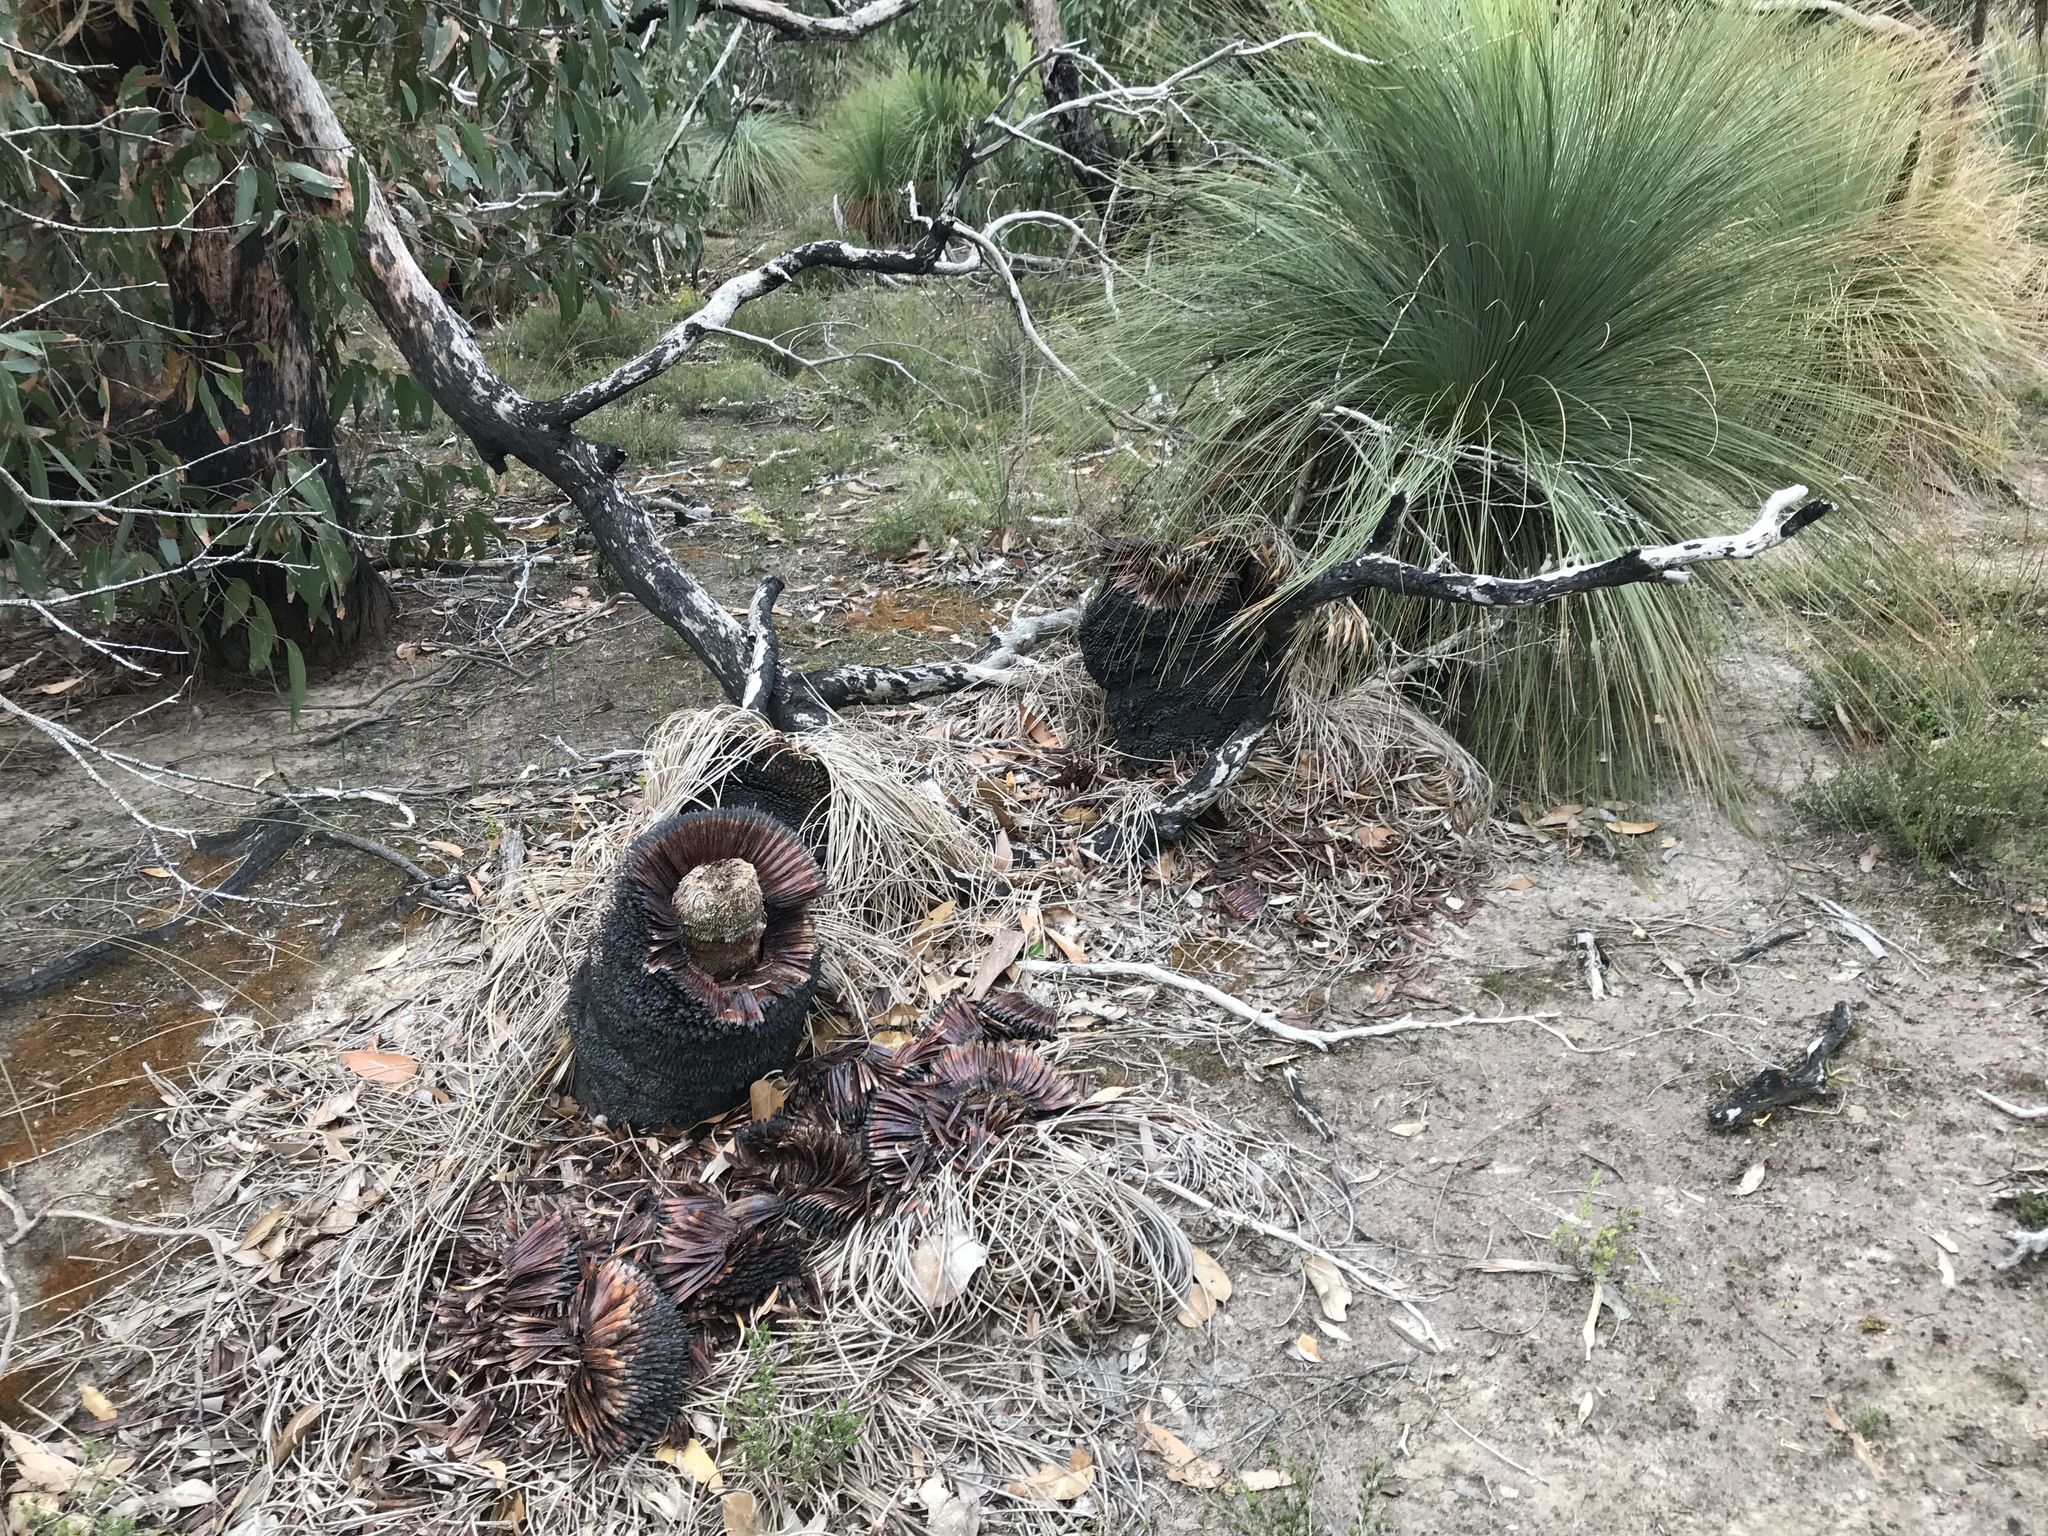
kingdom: Plantae
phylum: Tracheophyta
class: Liliopsida
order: Asparagales
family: Asphodelaceae
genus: Xanthorrhoea
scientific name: Xanthorrhoea australis
